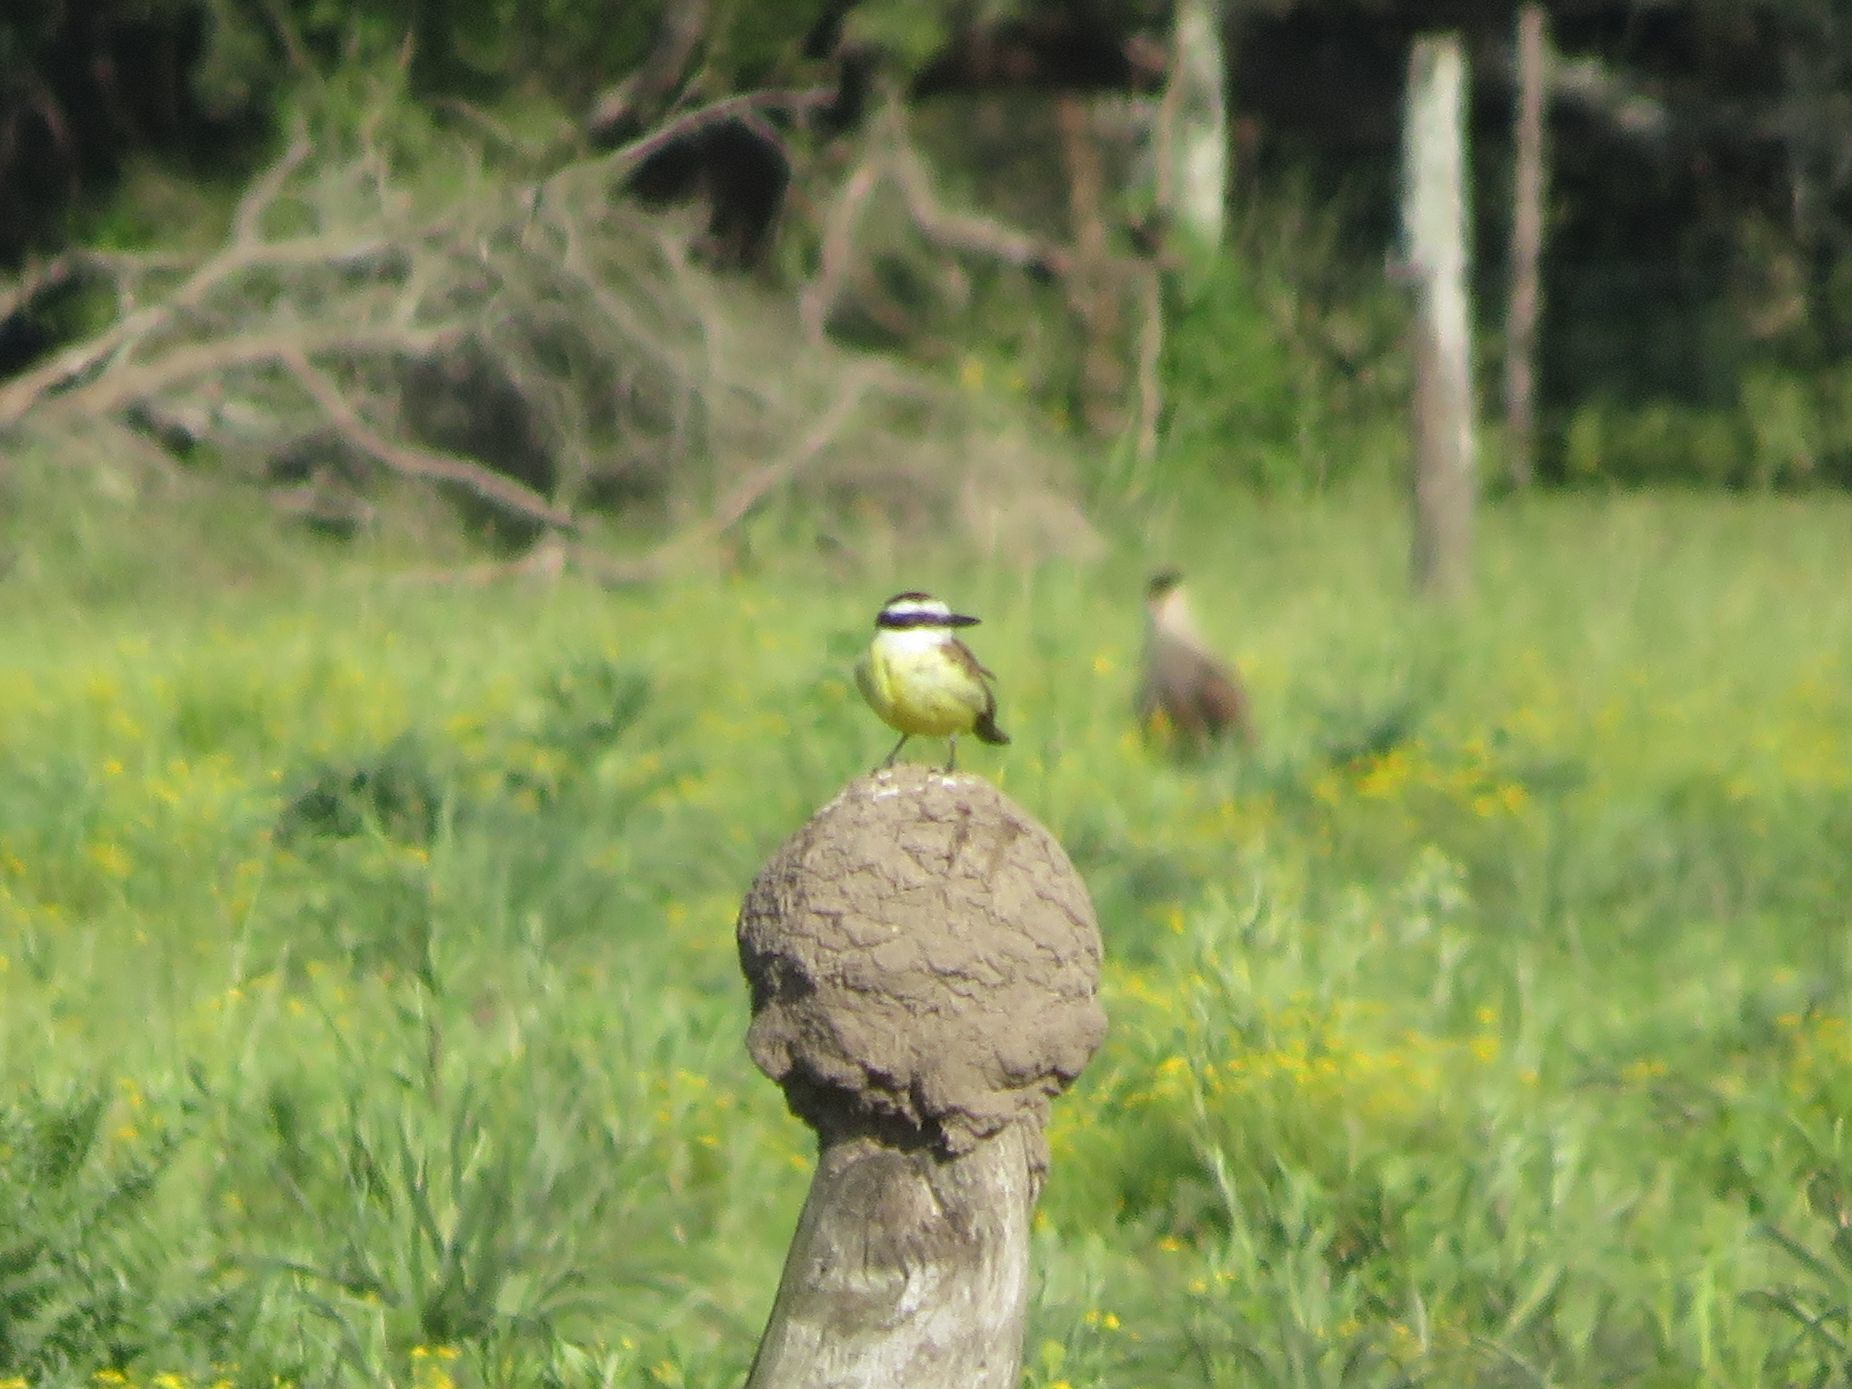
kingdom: Animalia
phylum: Chordata
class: Aves
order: Passeriformes
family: Tyrannidae
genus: Pitangus
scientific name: Pitangus sulphuratus
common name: Great kiskadee
